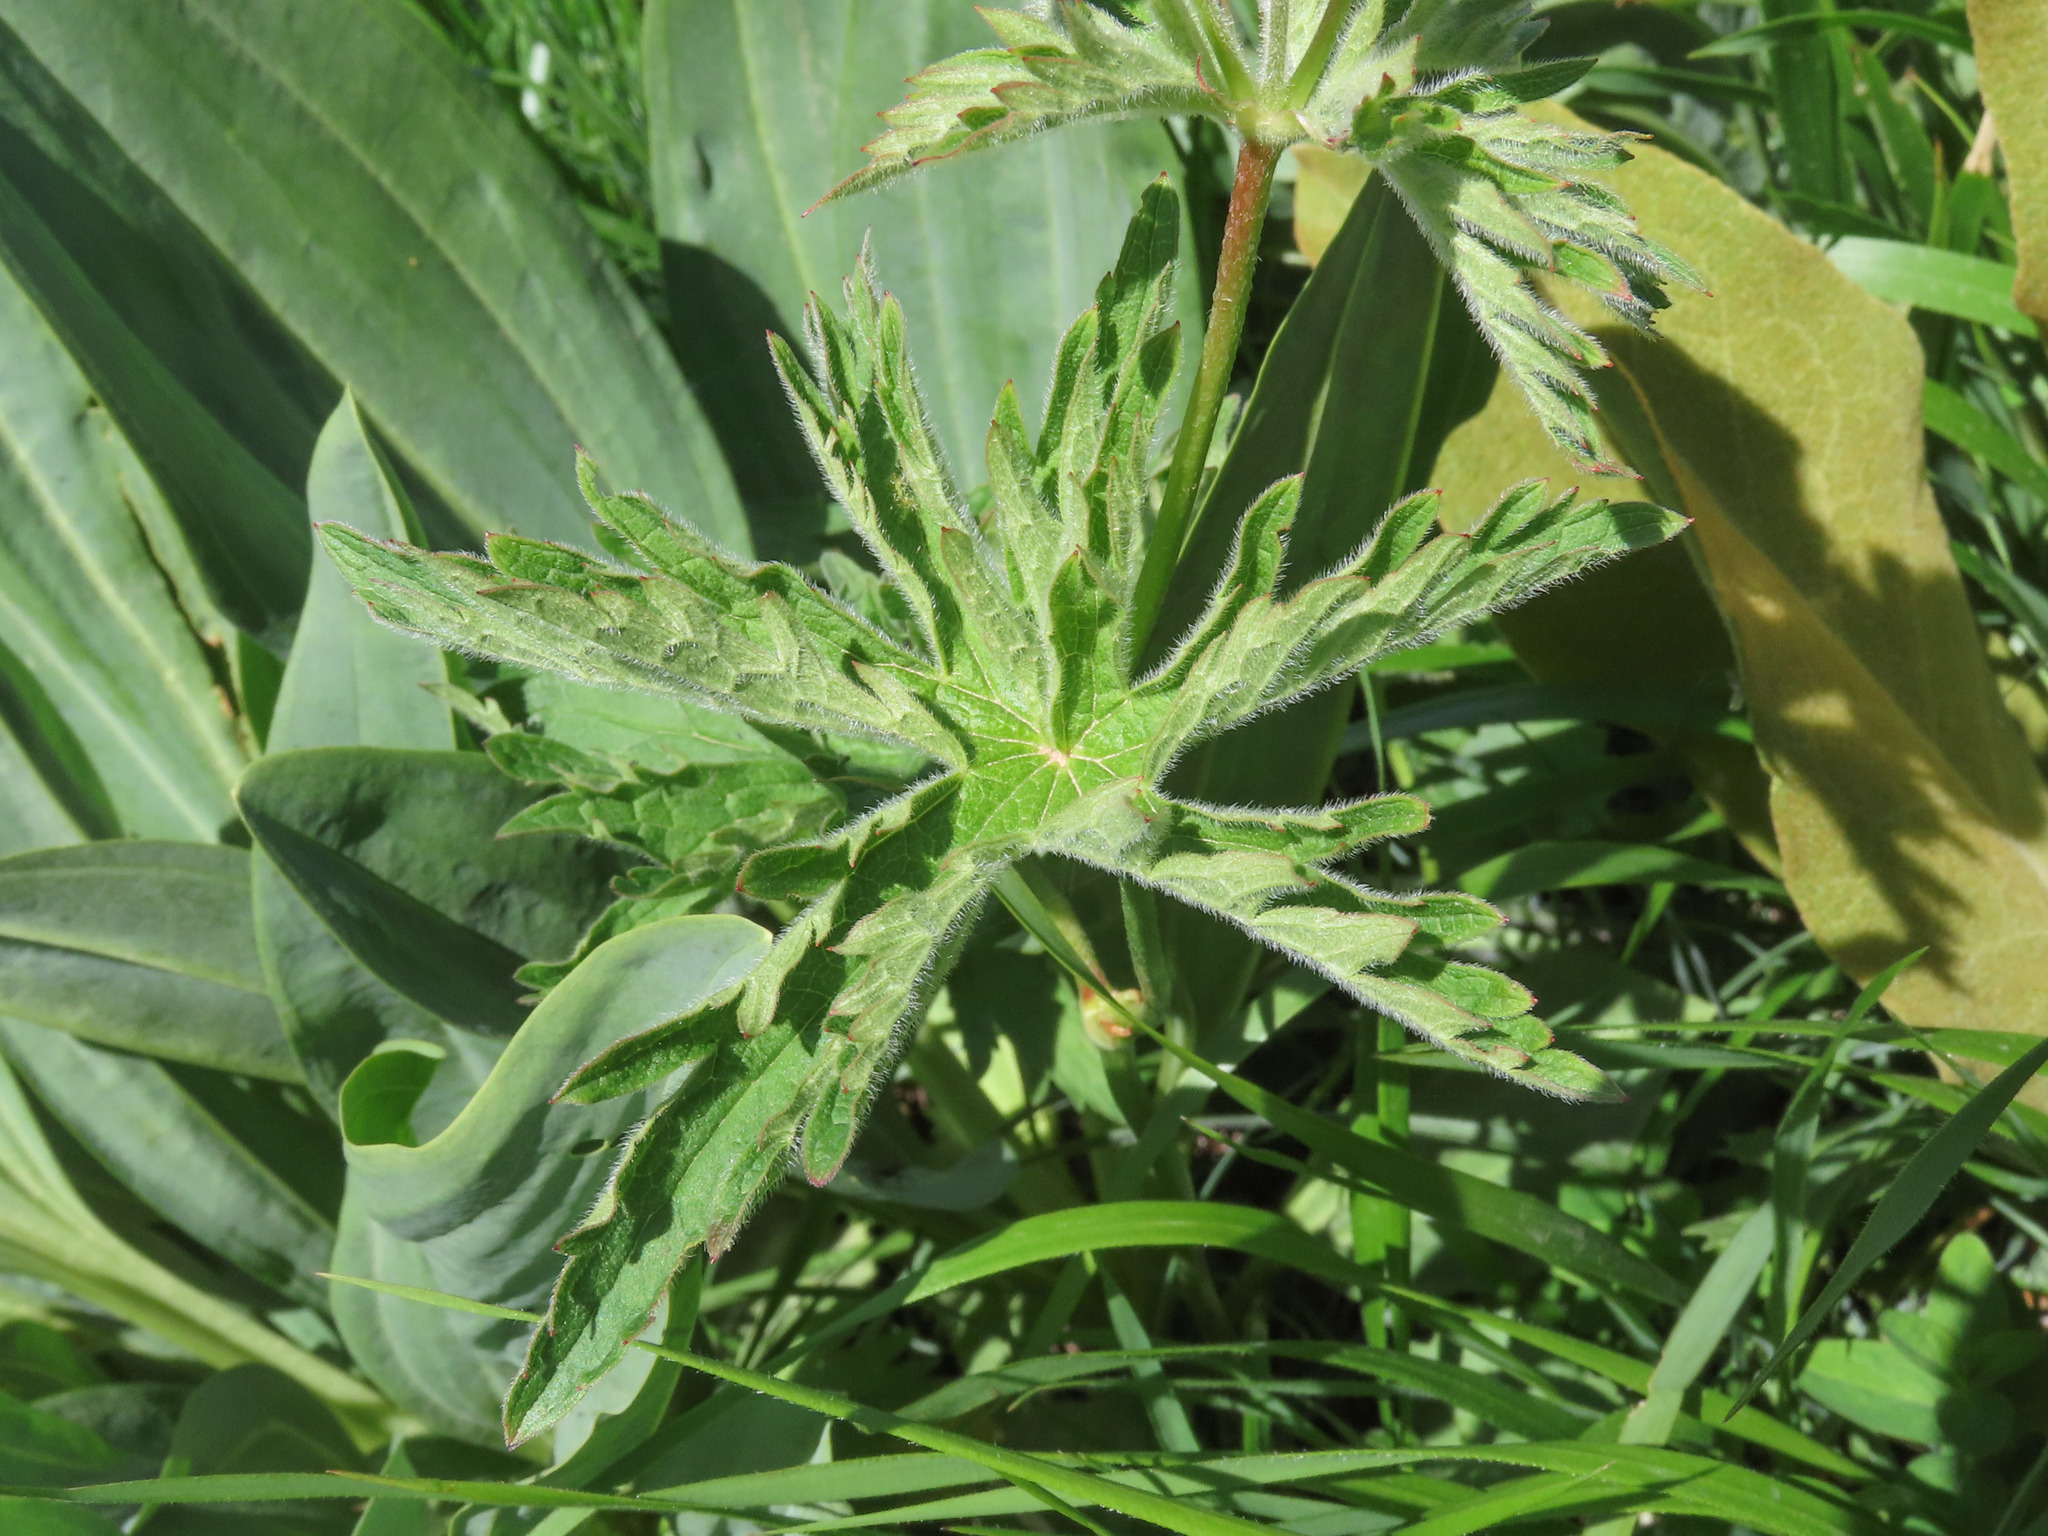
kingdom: Plantae
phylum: Tracheophyta
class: Magnoliopsida
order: Geraniales
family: Geraniaceae
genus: Geranium
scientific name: Geranium sylvaticum
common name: Wood crane's-bill
